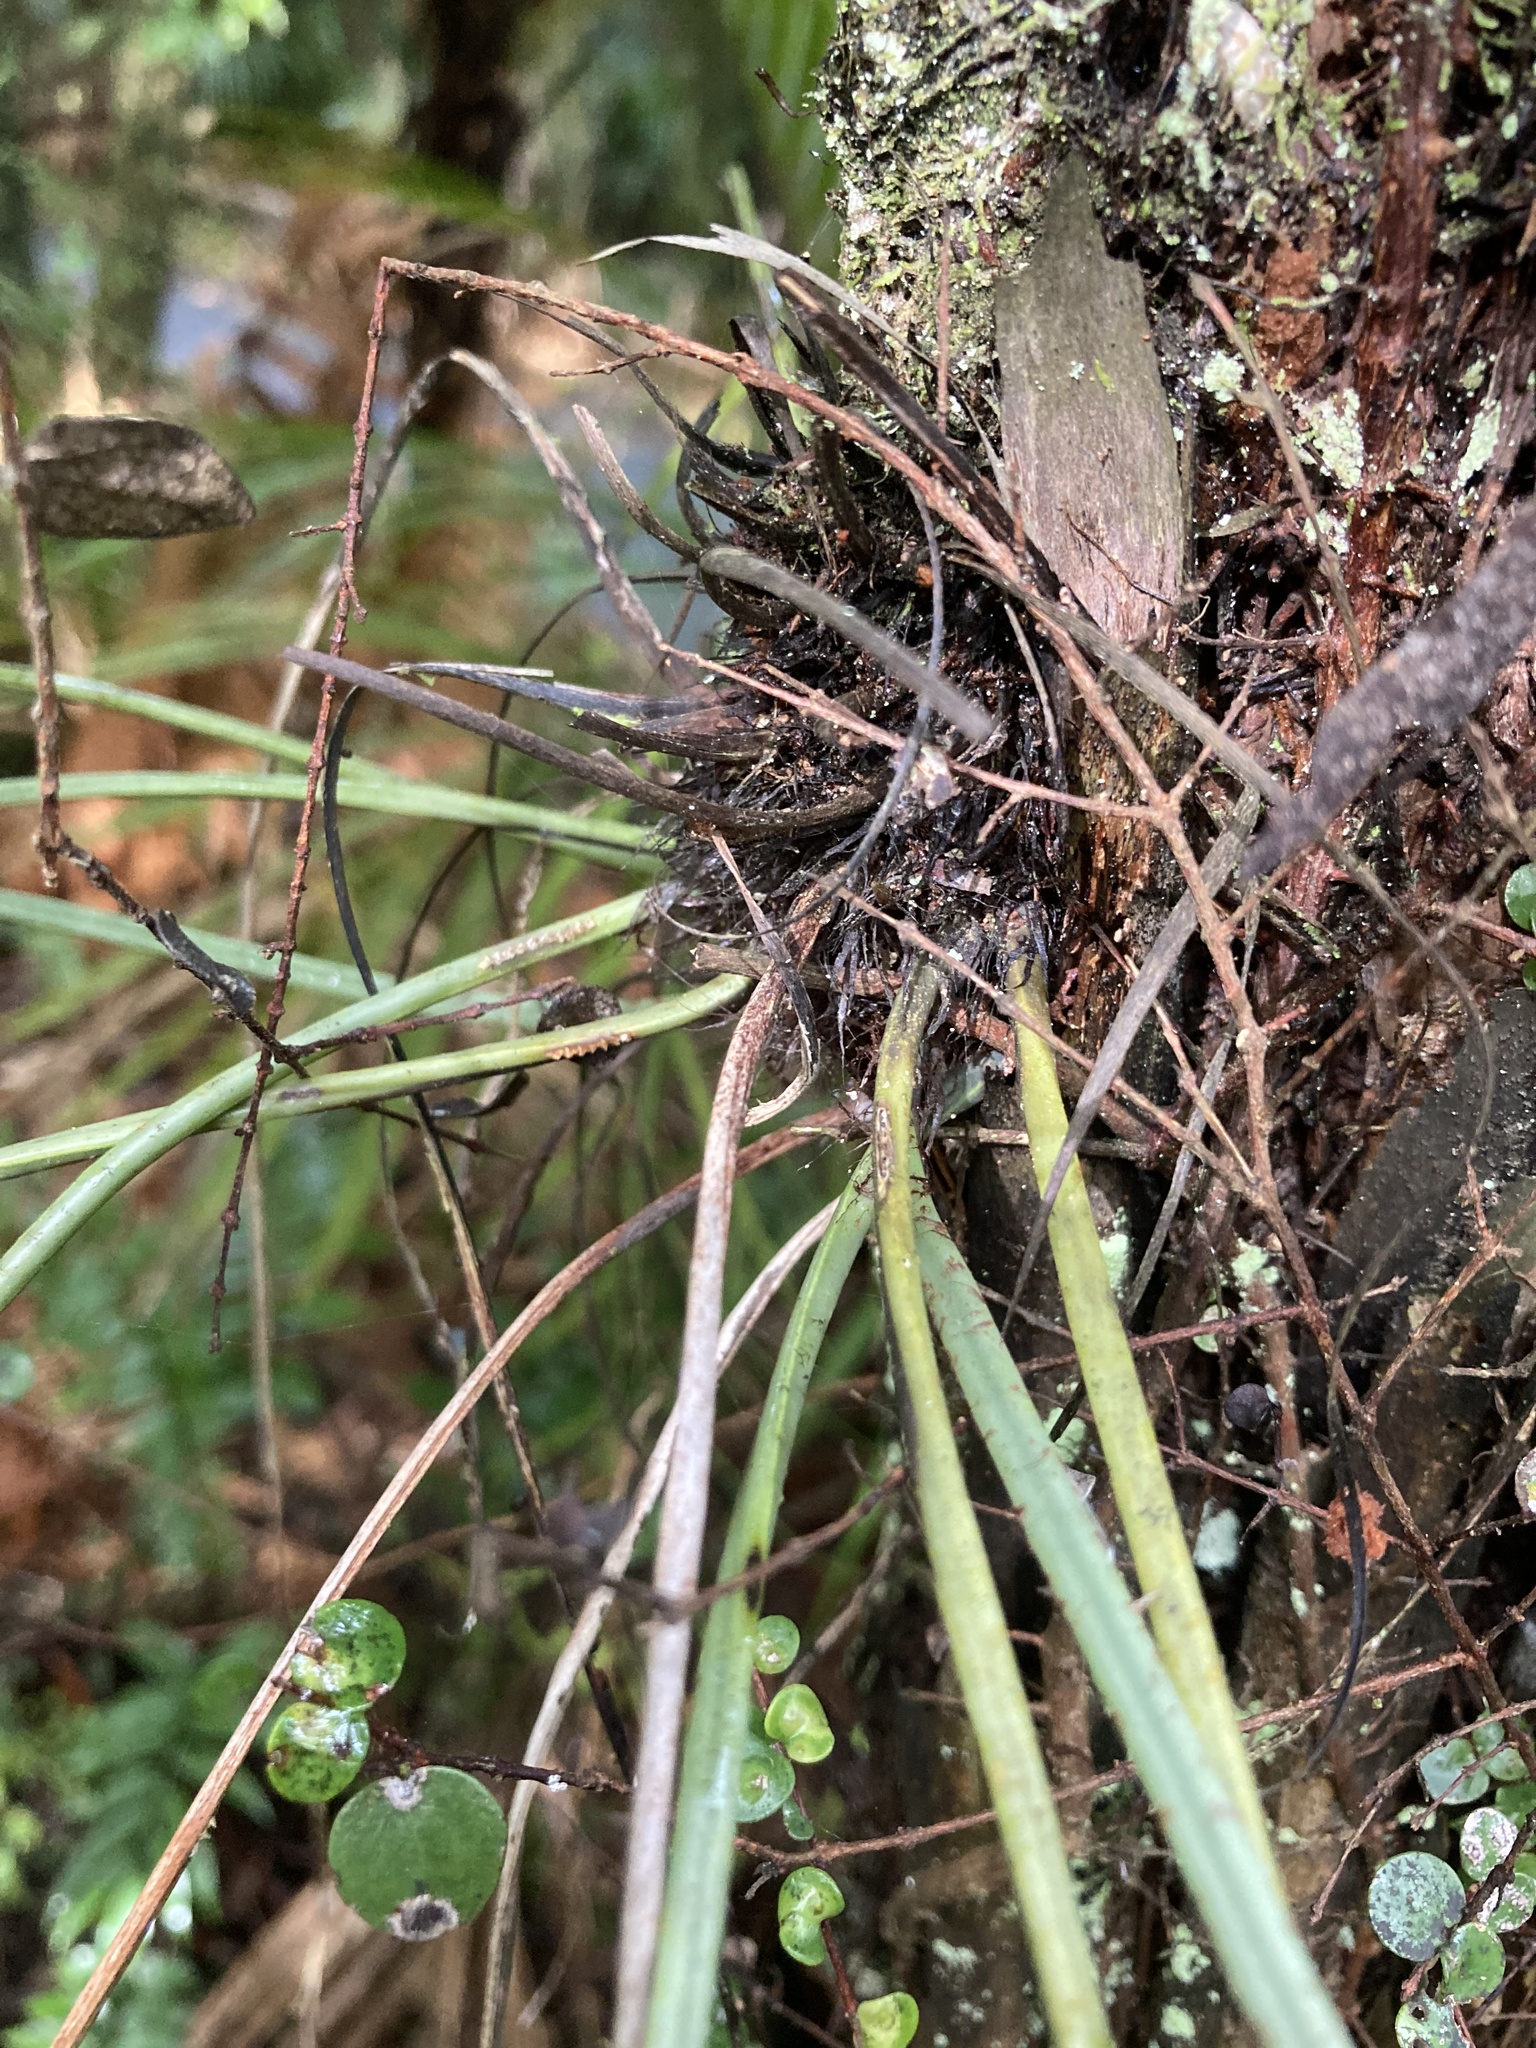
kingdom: Plantae
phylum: Tracheophyta
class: Polypodiopsida
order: Polypodiales
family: Aspleniaceae
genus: Asplenium
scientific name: Asplenium flaccidum
